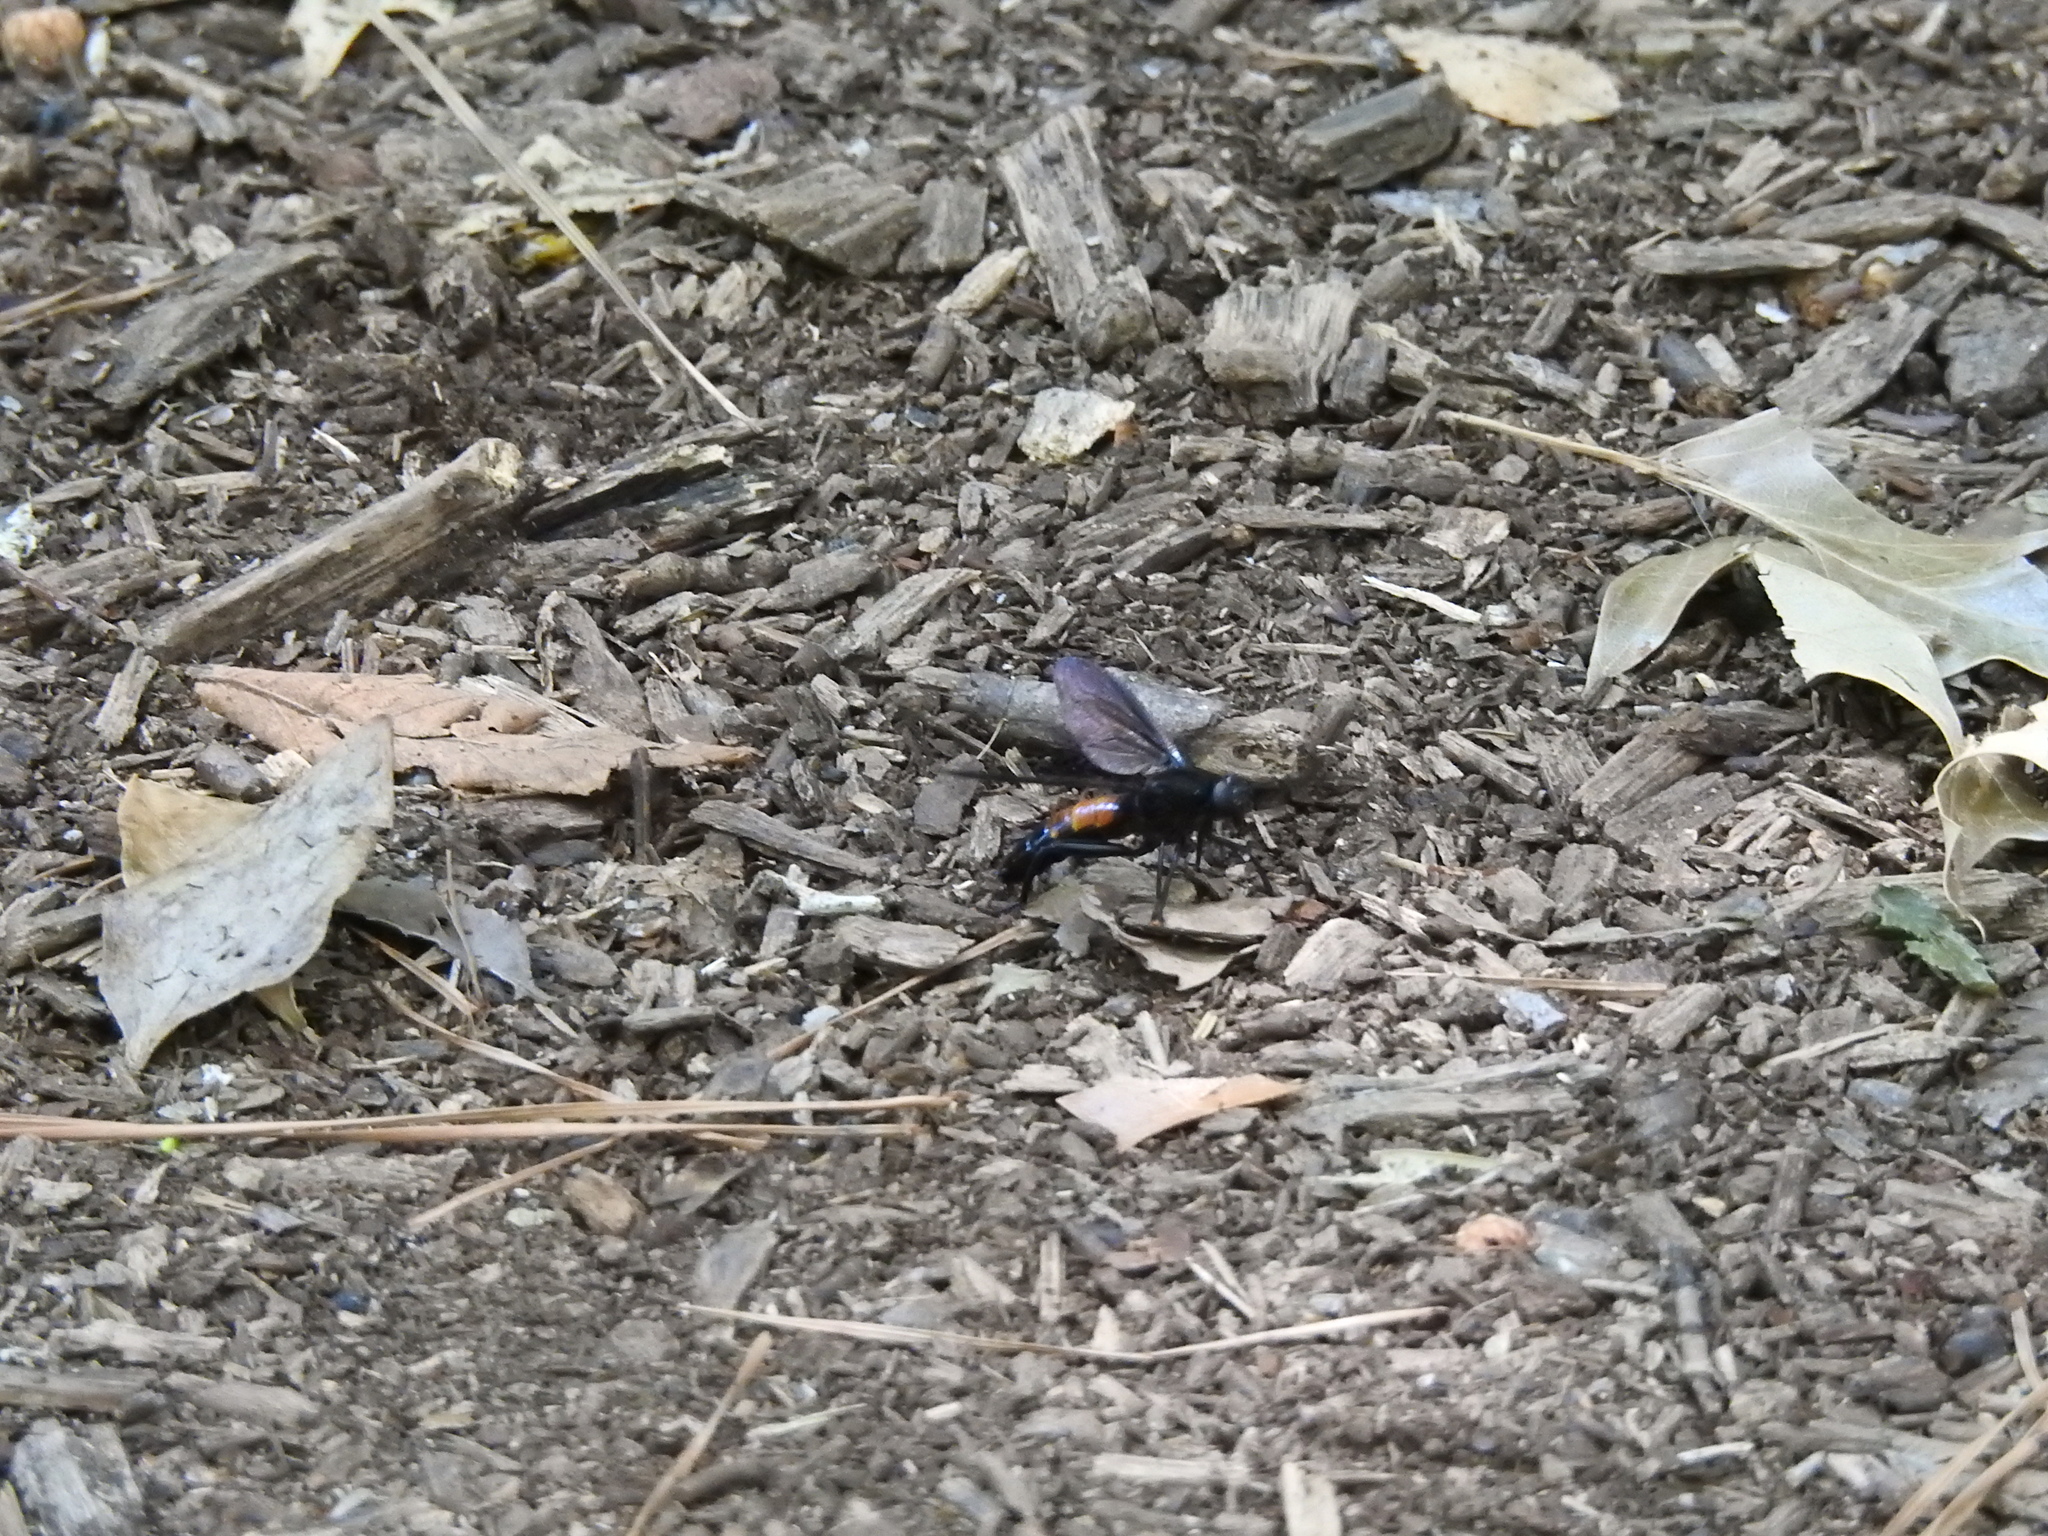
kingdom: Animalia
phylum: Arthropoda
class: Insecta
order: Diptera
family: Mydidae
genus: Mydas
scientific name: Mydas fulvifrons
